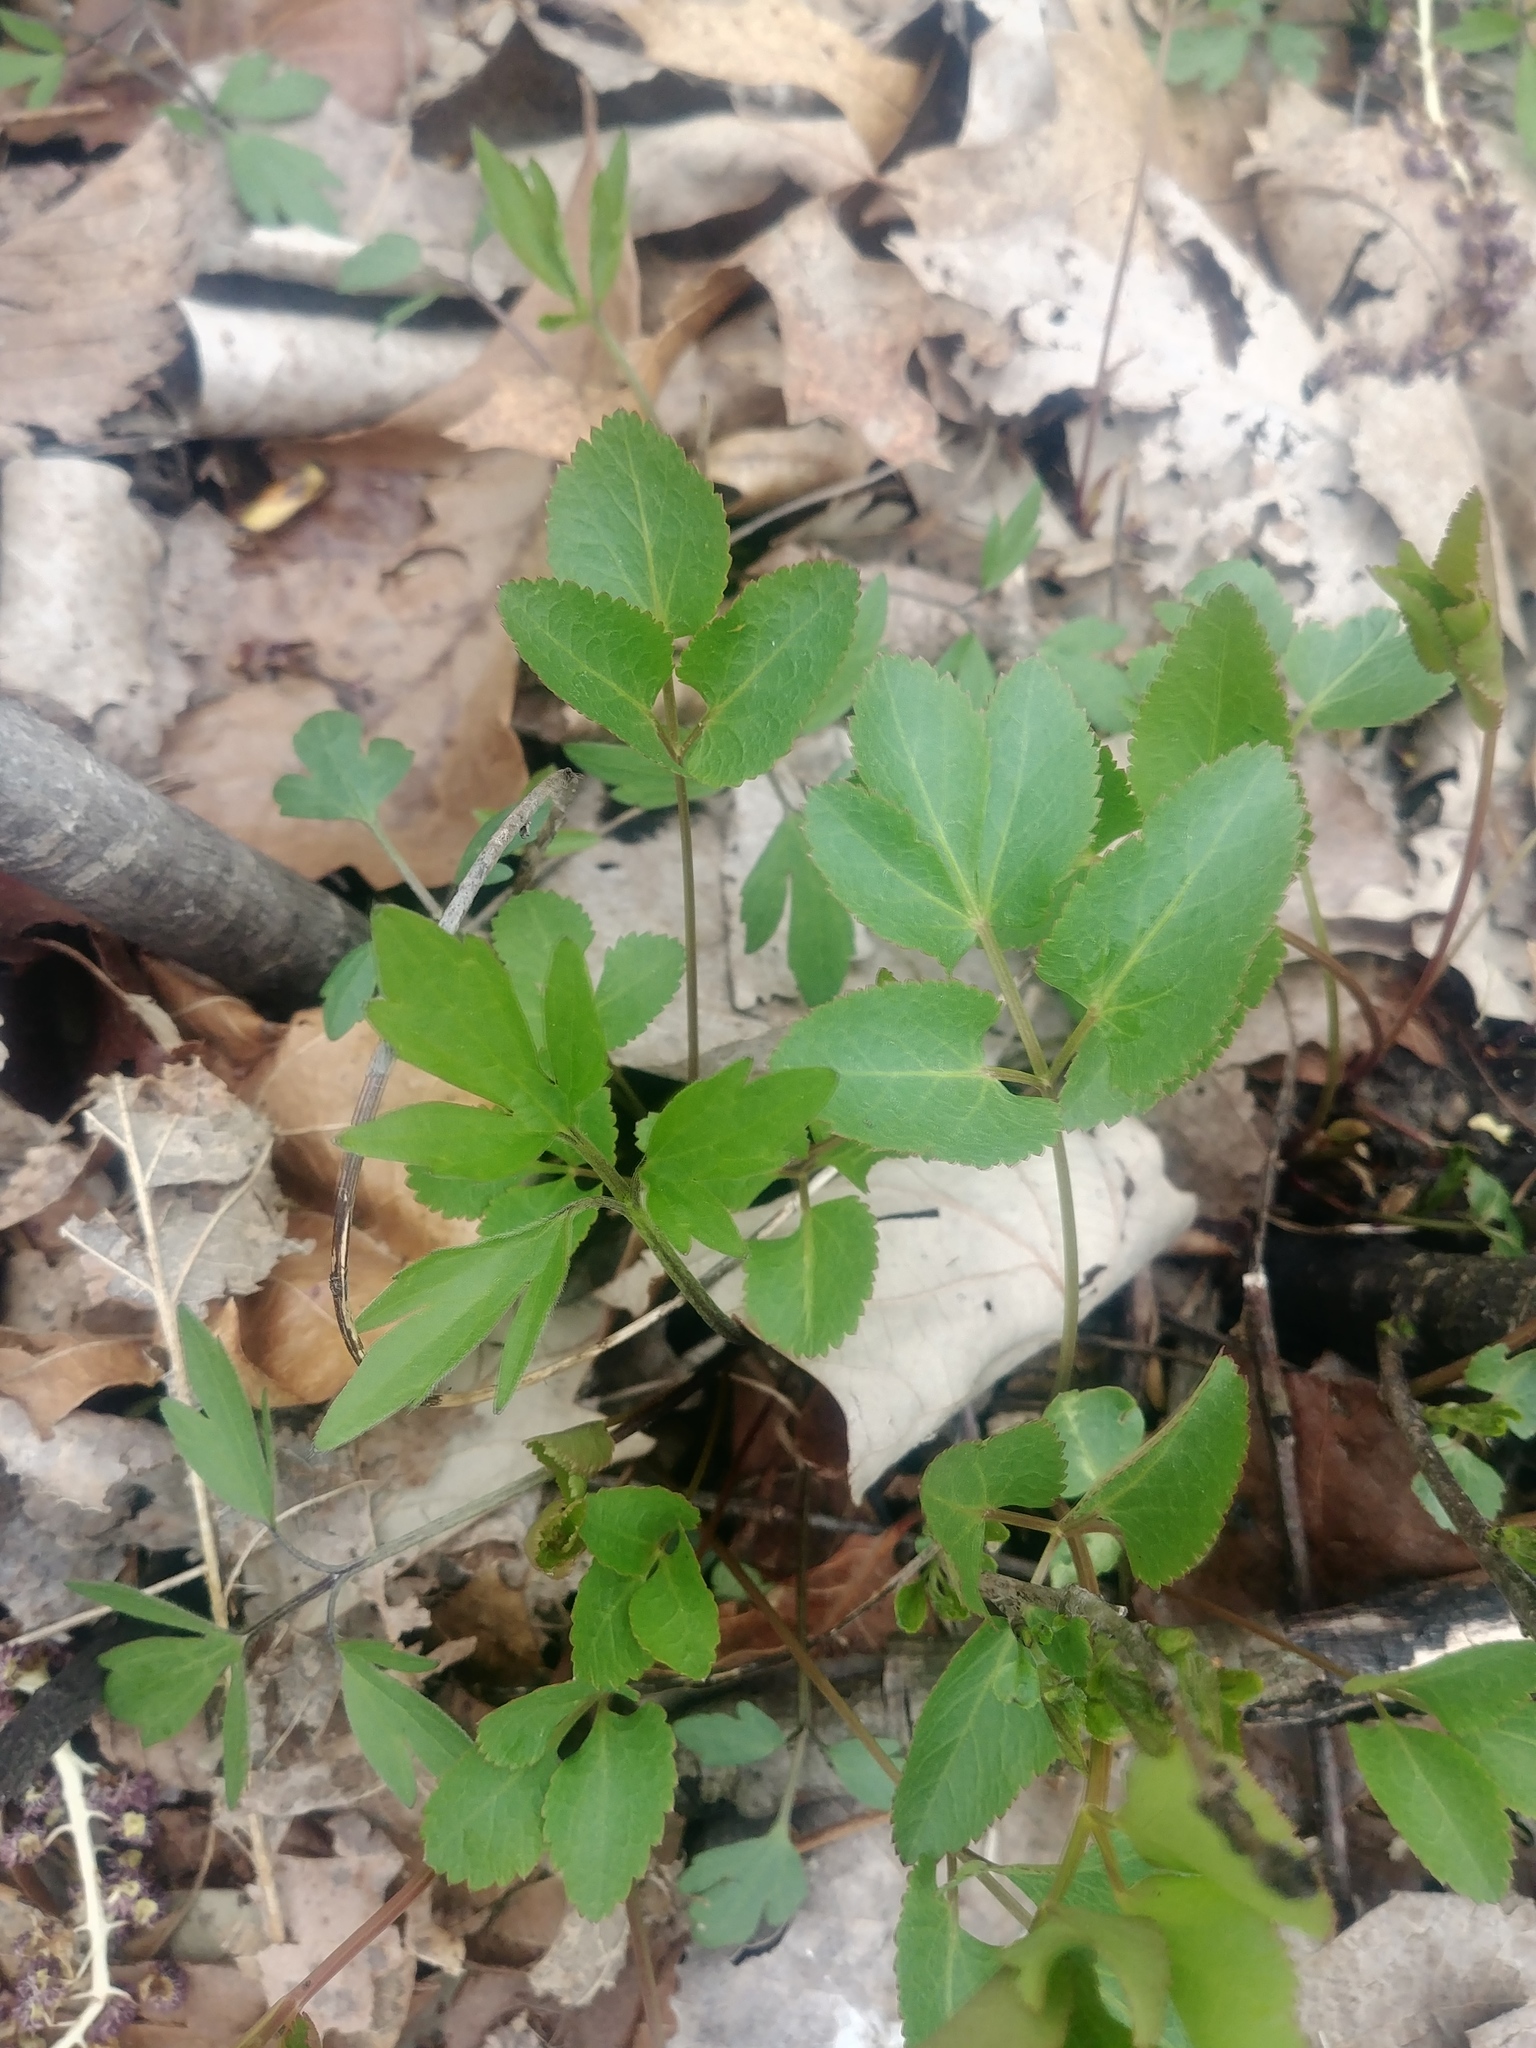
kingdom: Plantae
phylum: Tracheophyta
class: Magnoliopsida
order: Apiales
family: Apiaceae
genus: Zizia
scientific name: Zizia aurea
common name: Golden alexanders
